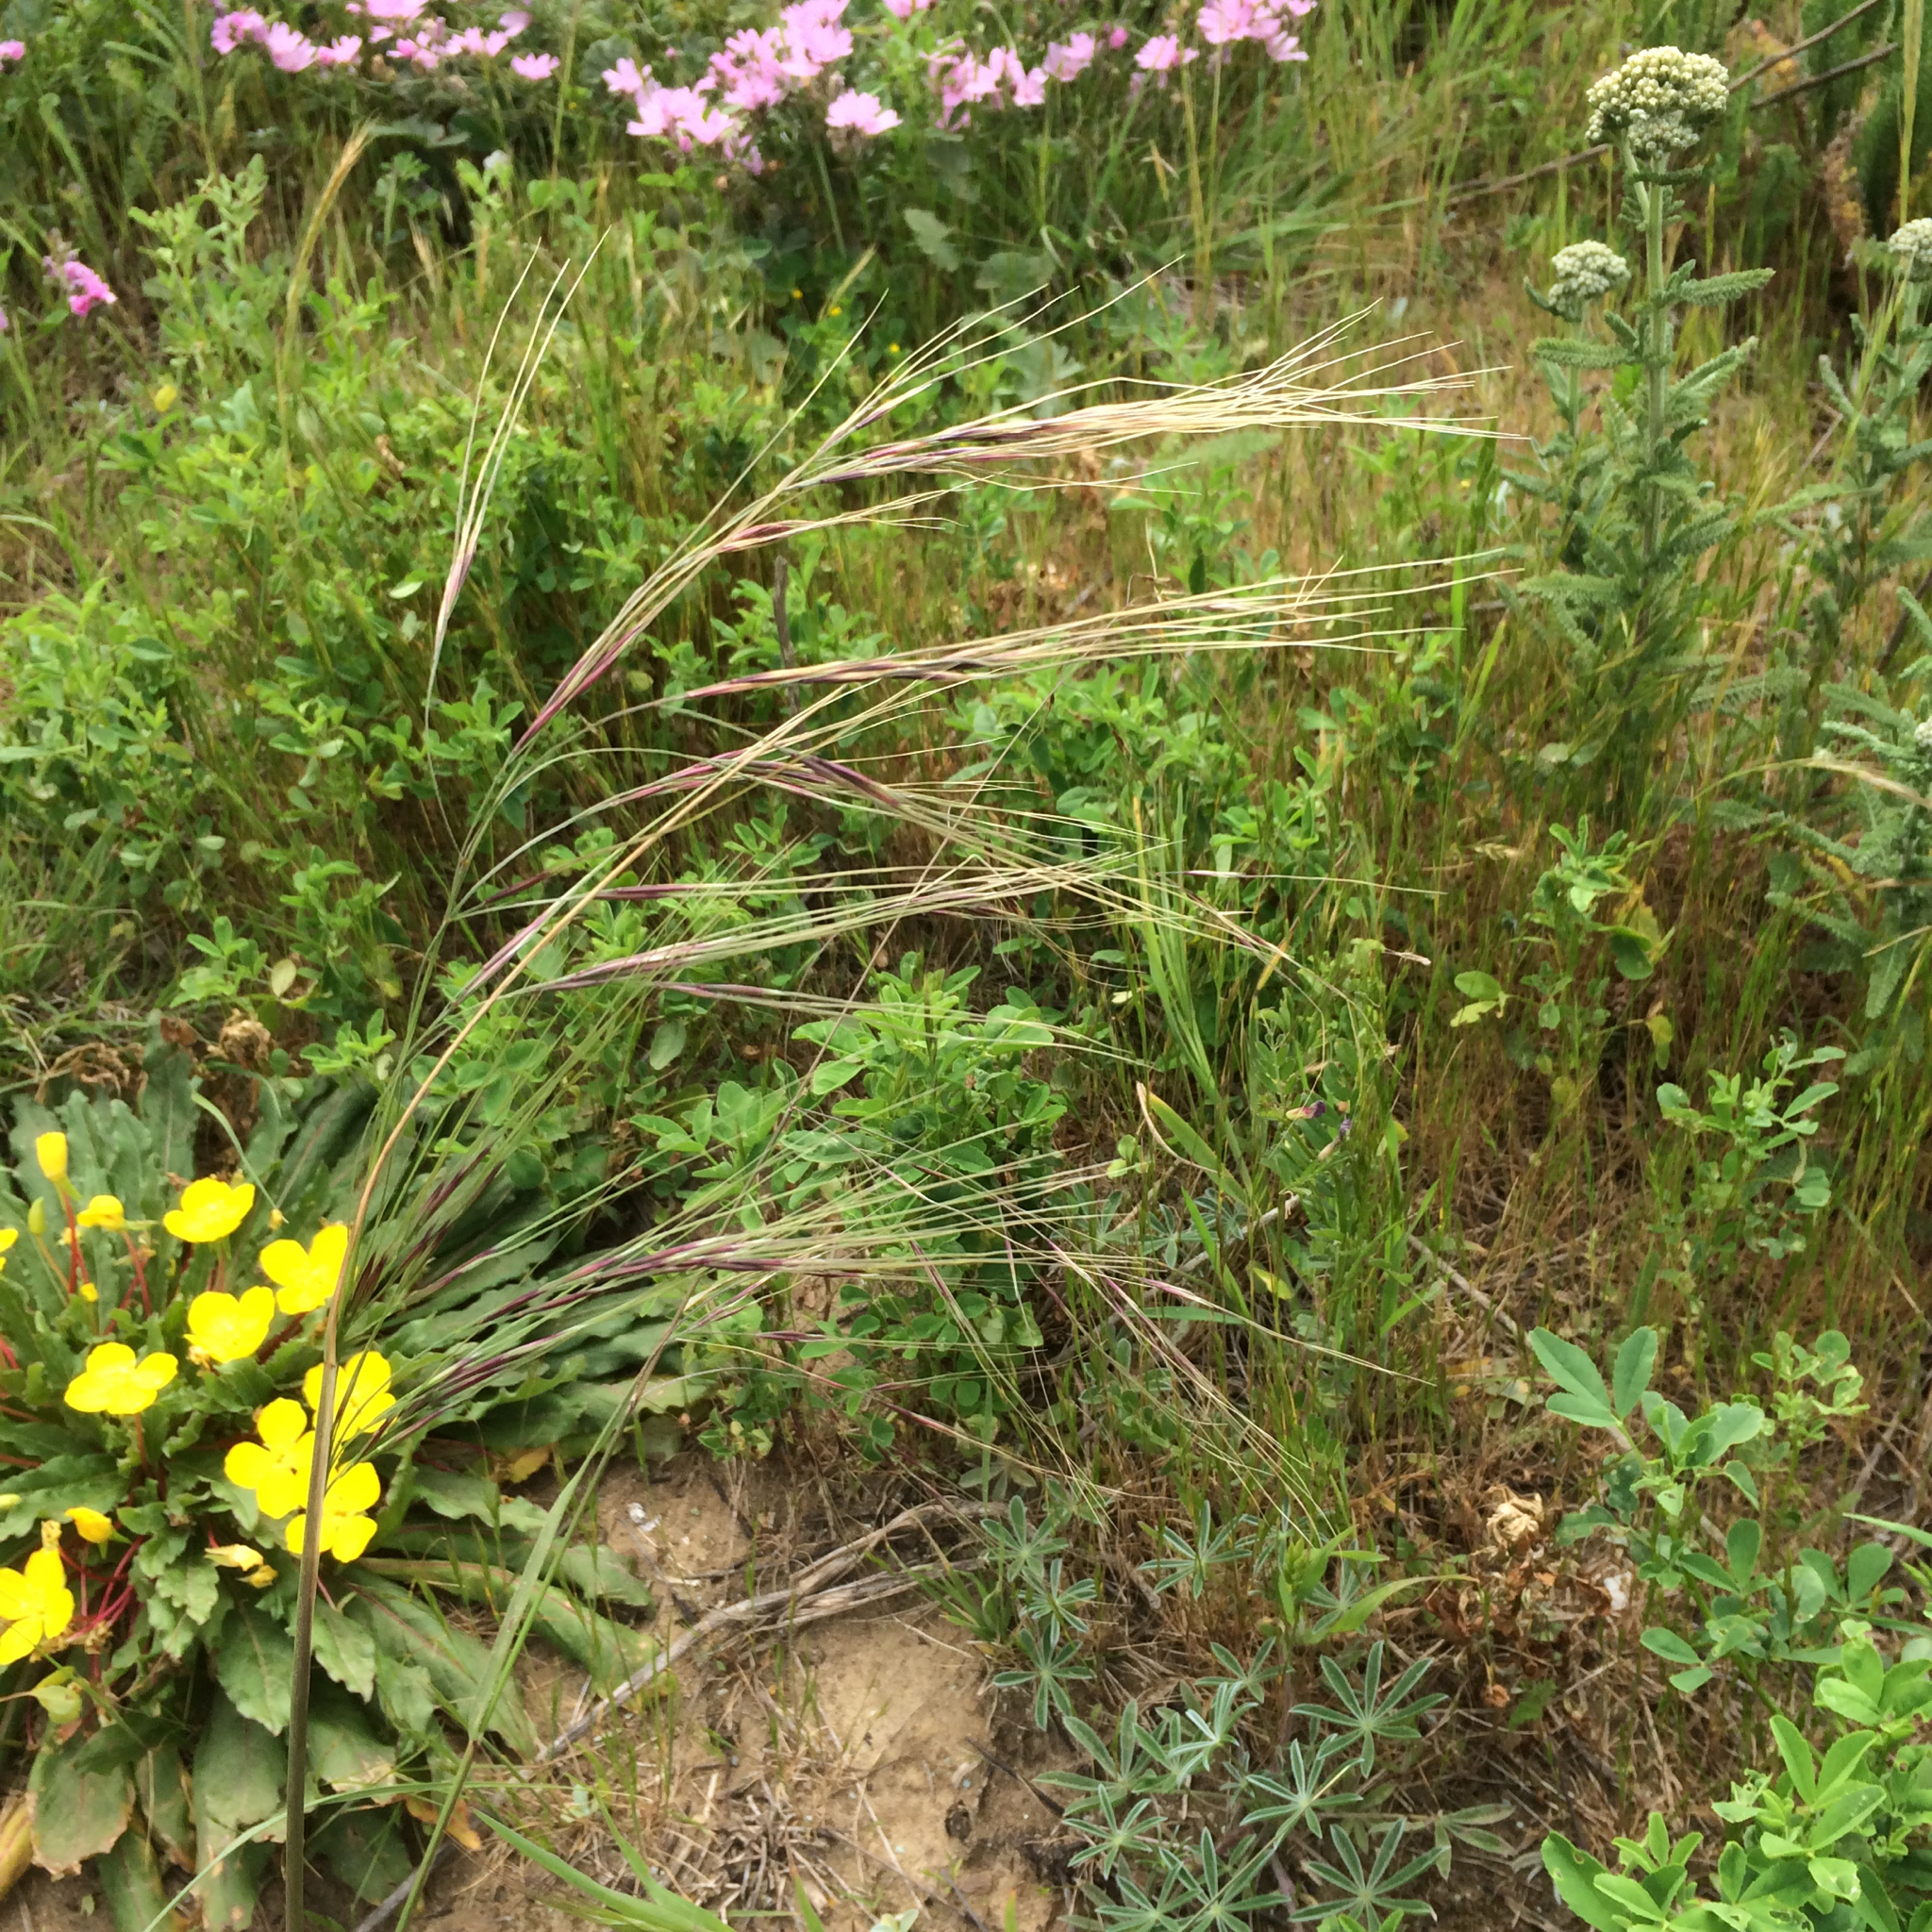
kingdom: Plantae
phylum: Tracheophyta
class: Liliopsida
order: Poales
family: Poaceae
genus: Nassella
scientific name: Nassella pulchra
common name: Purple needlegrass
